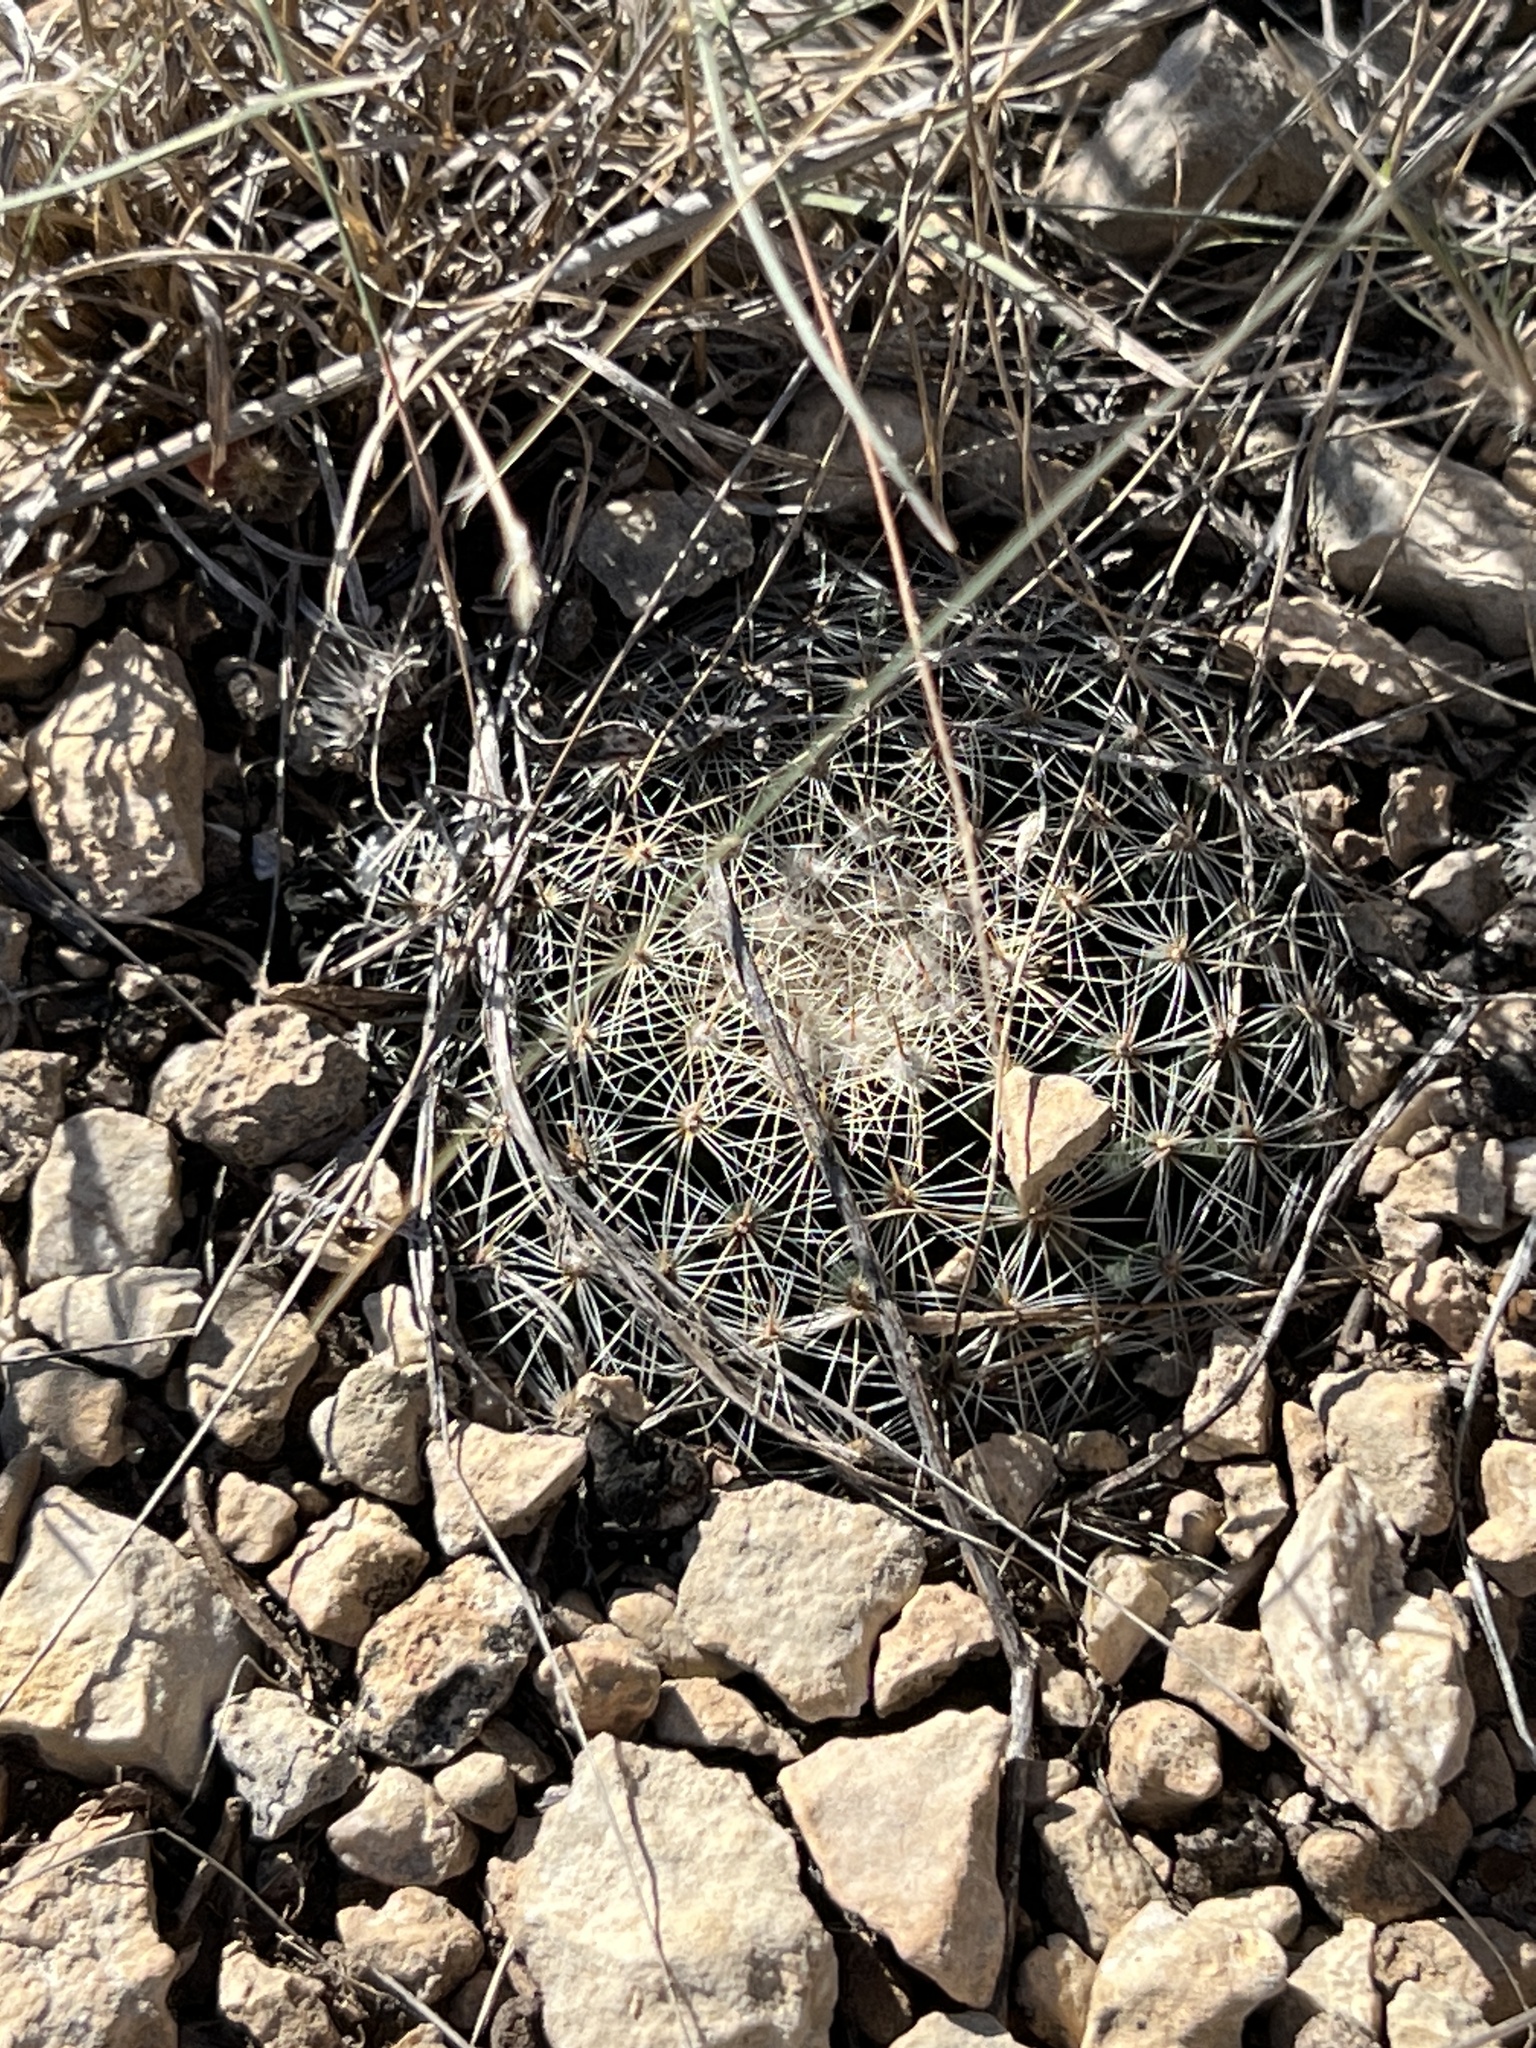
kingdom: Plantae
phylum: Tracheophyta
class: Magnoliopsida
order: Caryophyllales
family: Cactaceae
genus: Mammillaria
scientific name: Mammillaria heyderi
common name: Little nipple cactus
